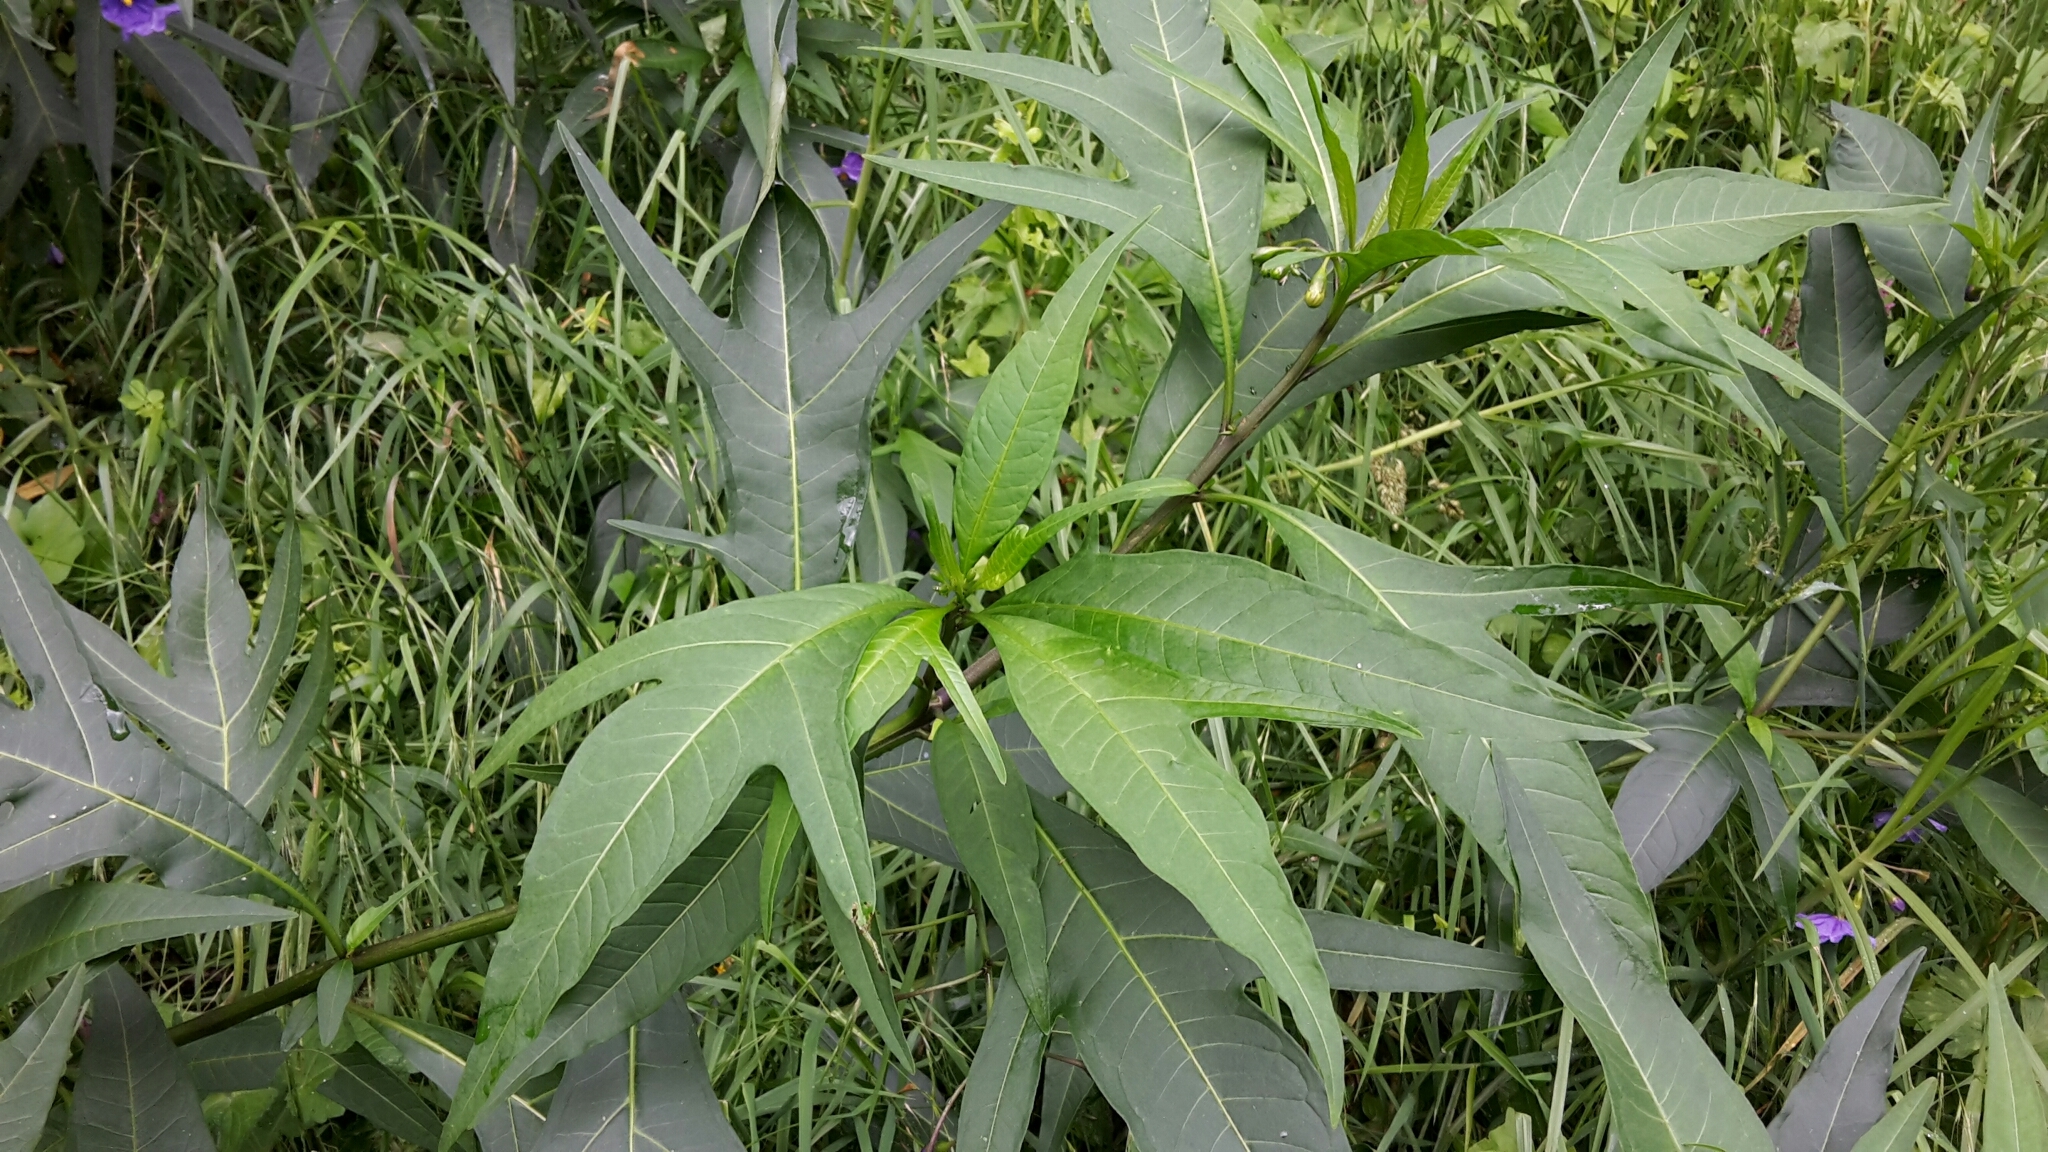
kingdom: Plantae
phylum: Tracheophyta
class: Magnoliopsida
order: Solanales
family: Solanaceae
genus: Solanum
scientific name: Solanum laciniatum
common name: Kangaroo-apple
